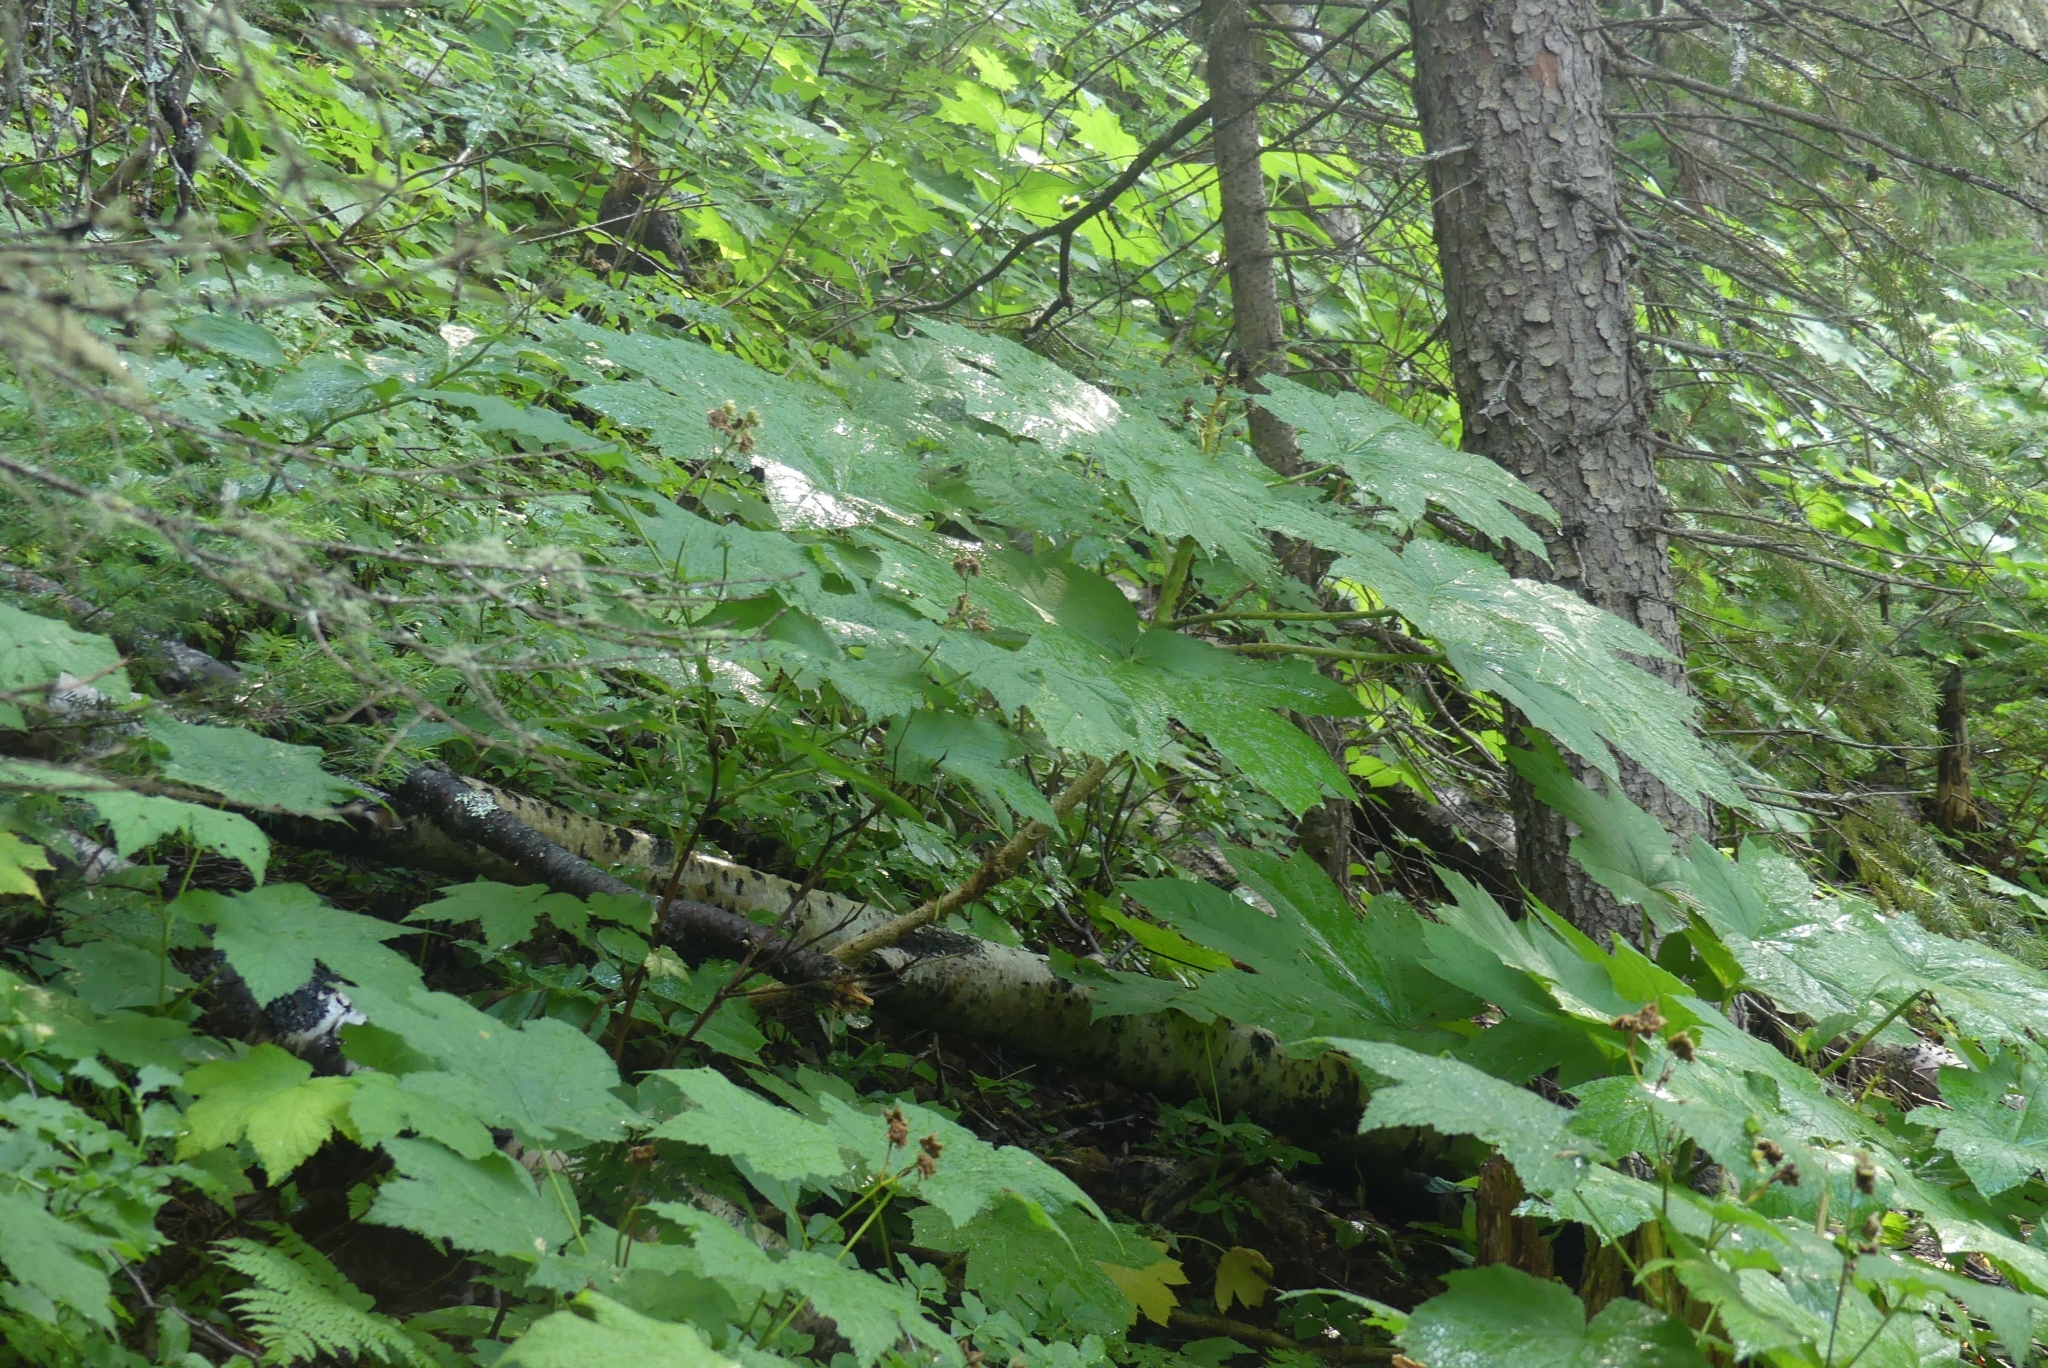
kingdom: Plantae
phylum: Tracheophyta
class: Magnoliopsida
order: Apiales
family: Araliaceae
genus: Oplopanax
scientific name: Oplopanax horridus
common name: Devil's walking-stick
